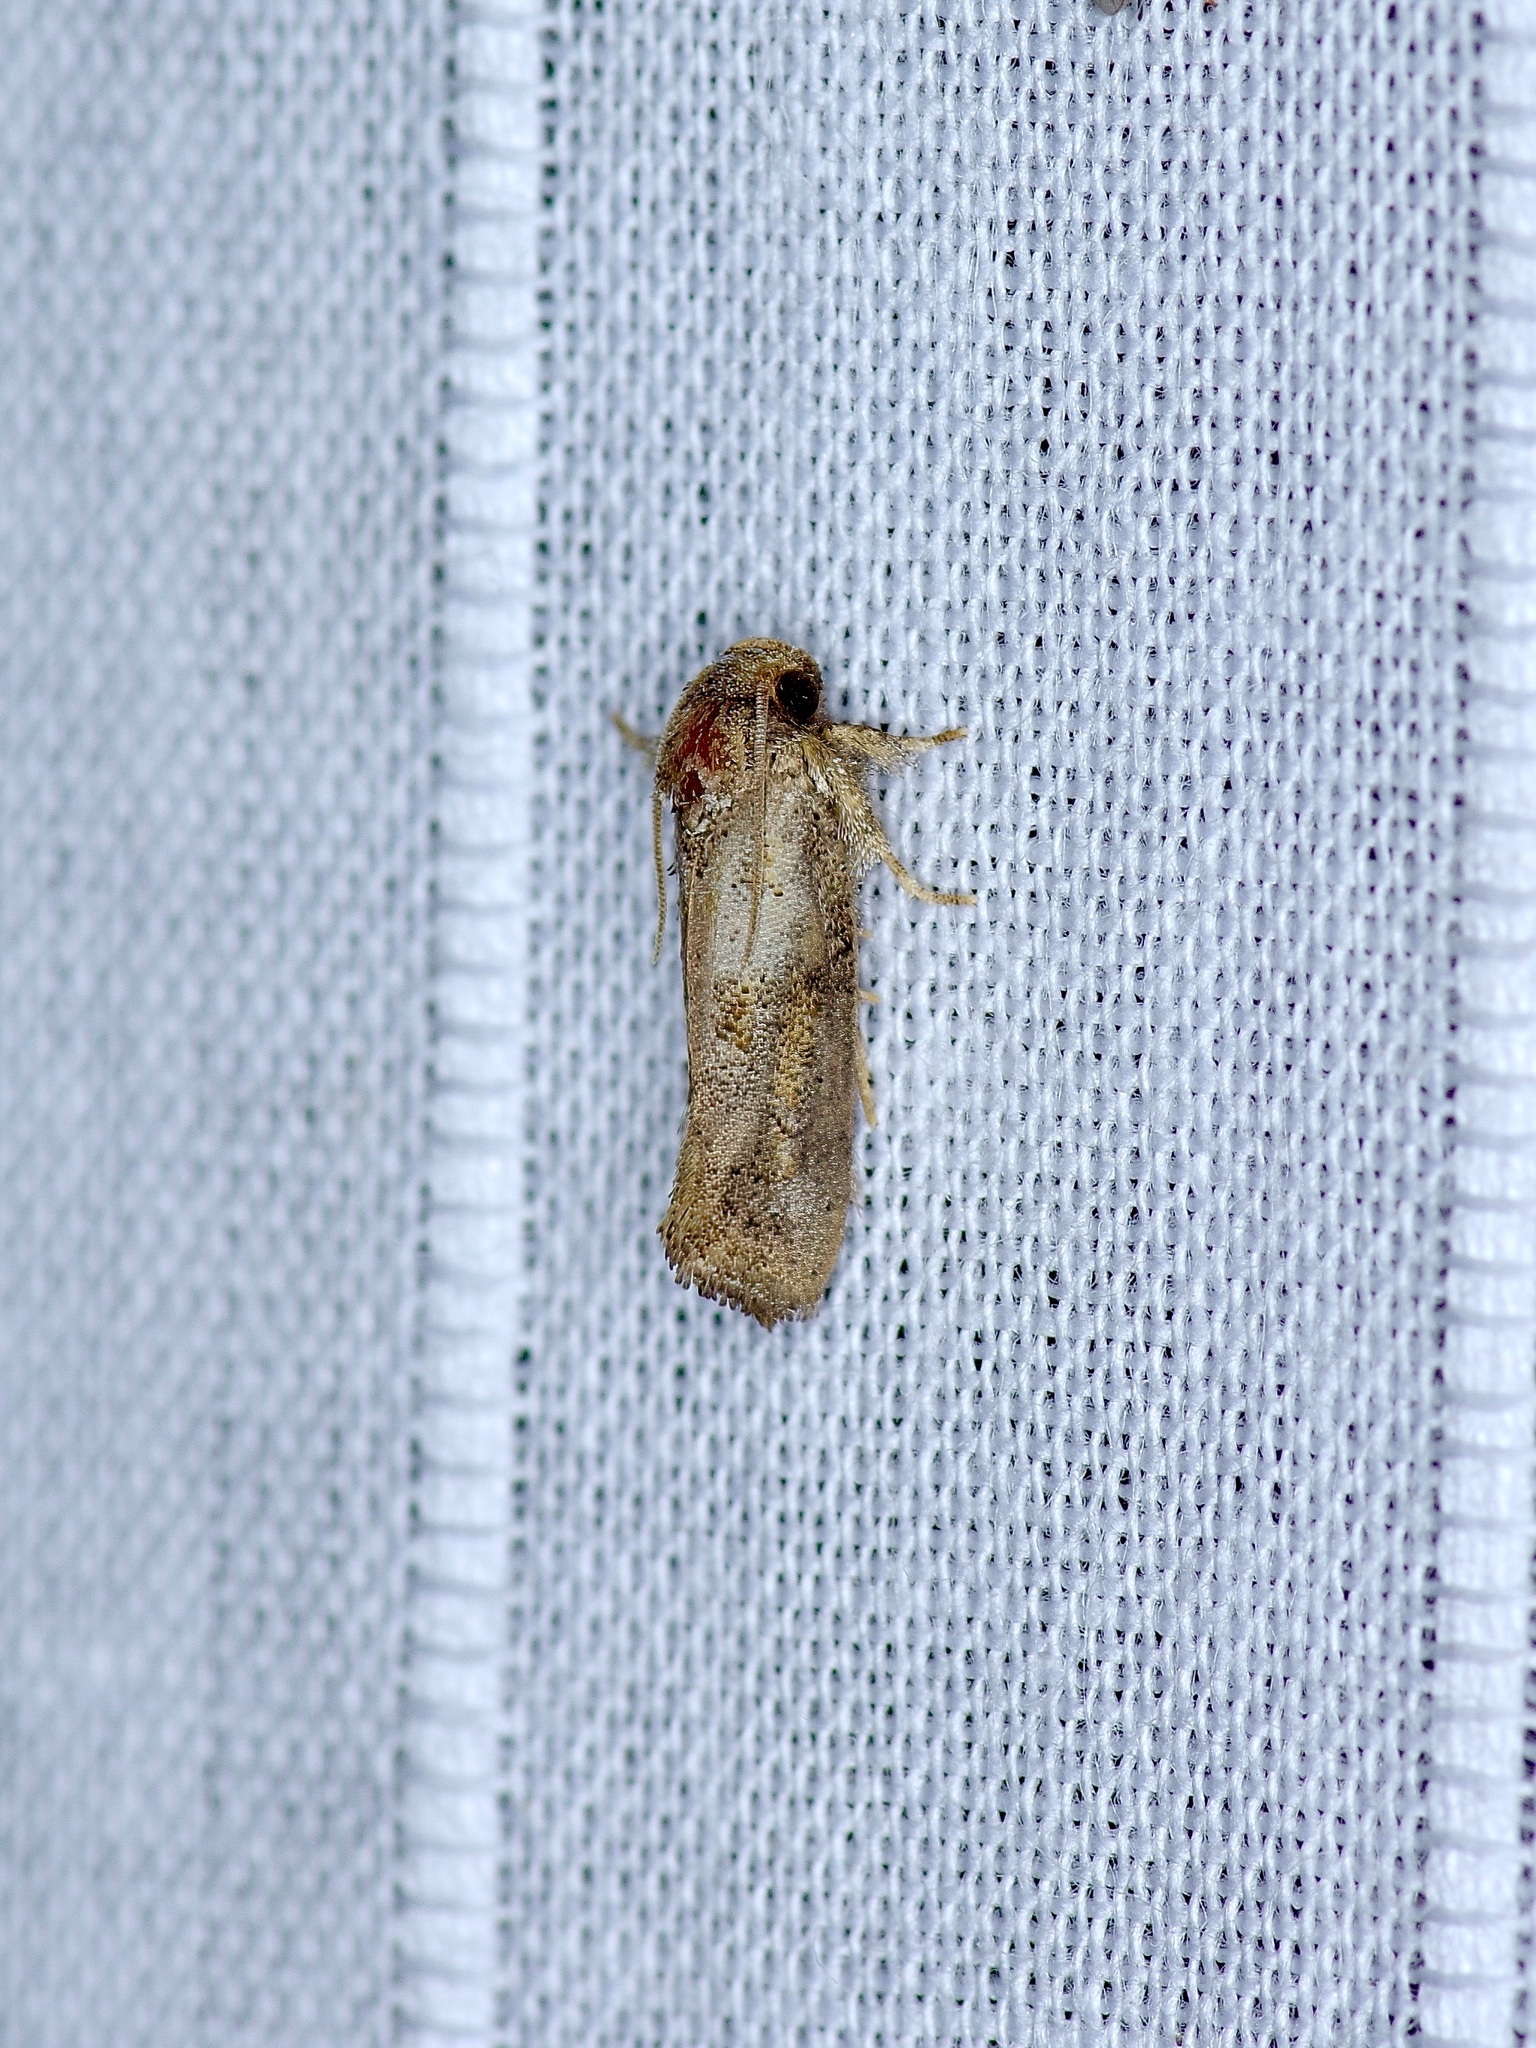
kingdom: Animalia
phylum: Arthropoda
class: Insecta
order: Lepidoptera
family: Tineidae
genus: Acrolophus
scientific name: Acrolophus piger
